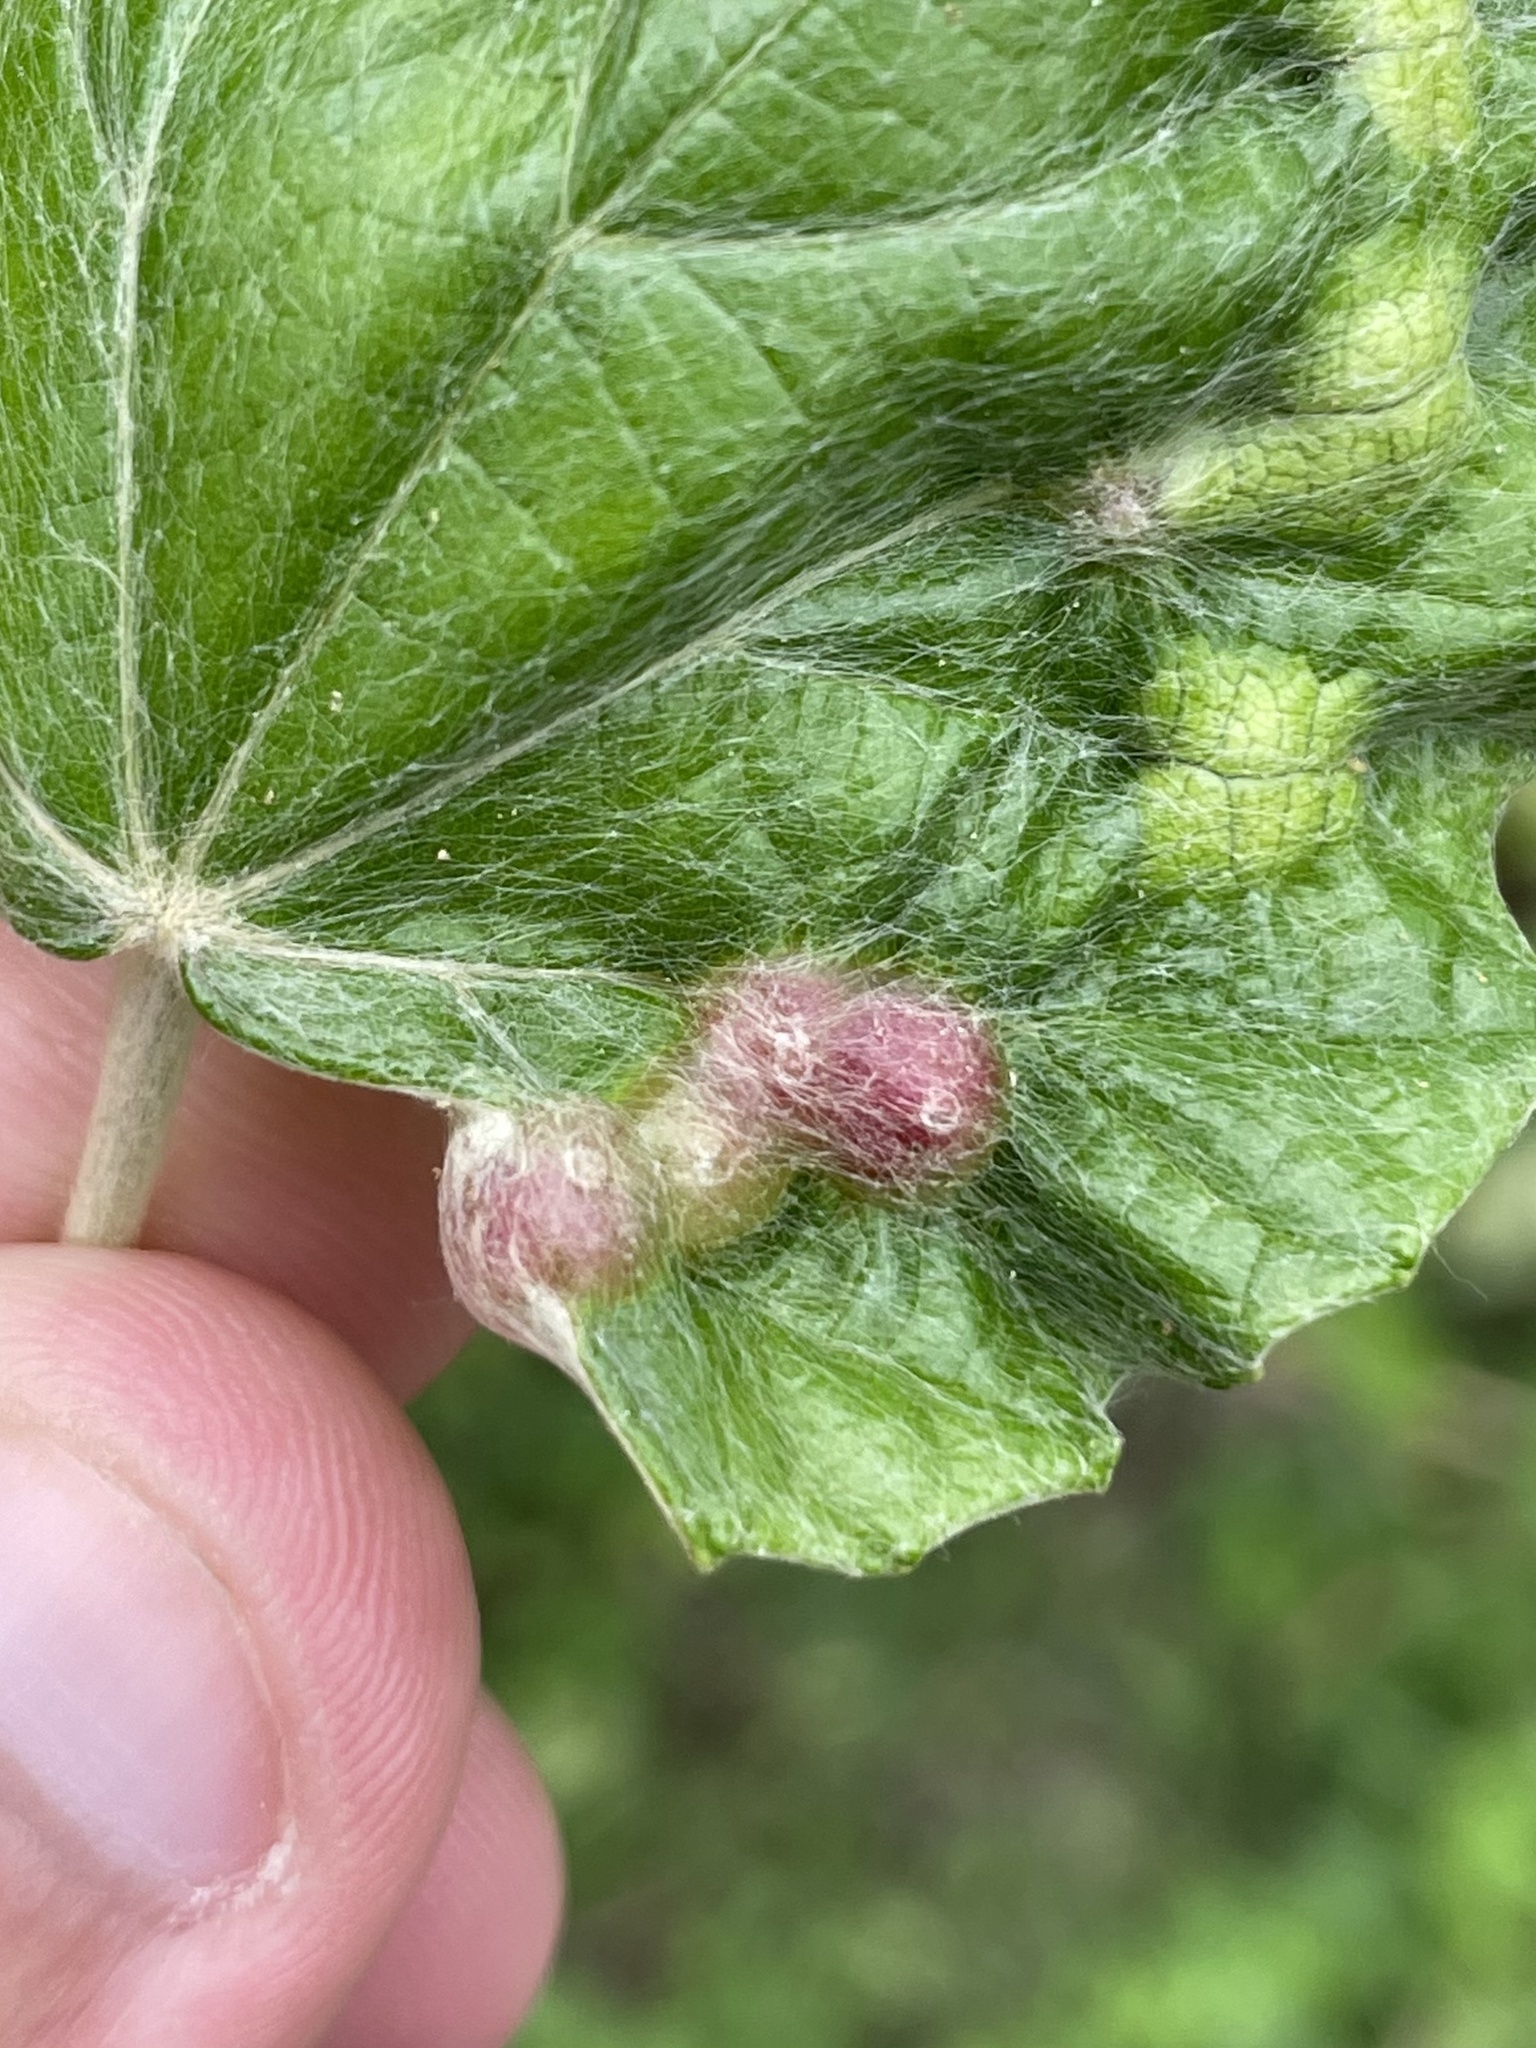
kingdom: Animalia
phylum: Arthropoda
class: Insecta
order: Diptera
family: Cecidomyiidae
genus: Vitisiella
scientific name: Vitisiella brevicauda
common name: Grape tumid gallmaker midge
